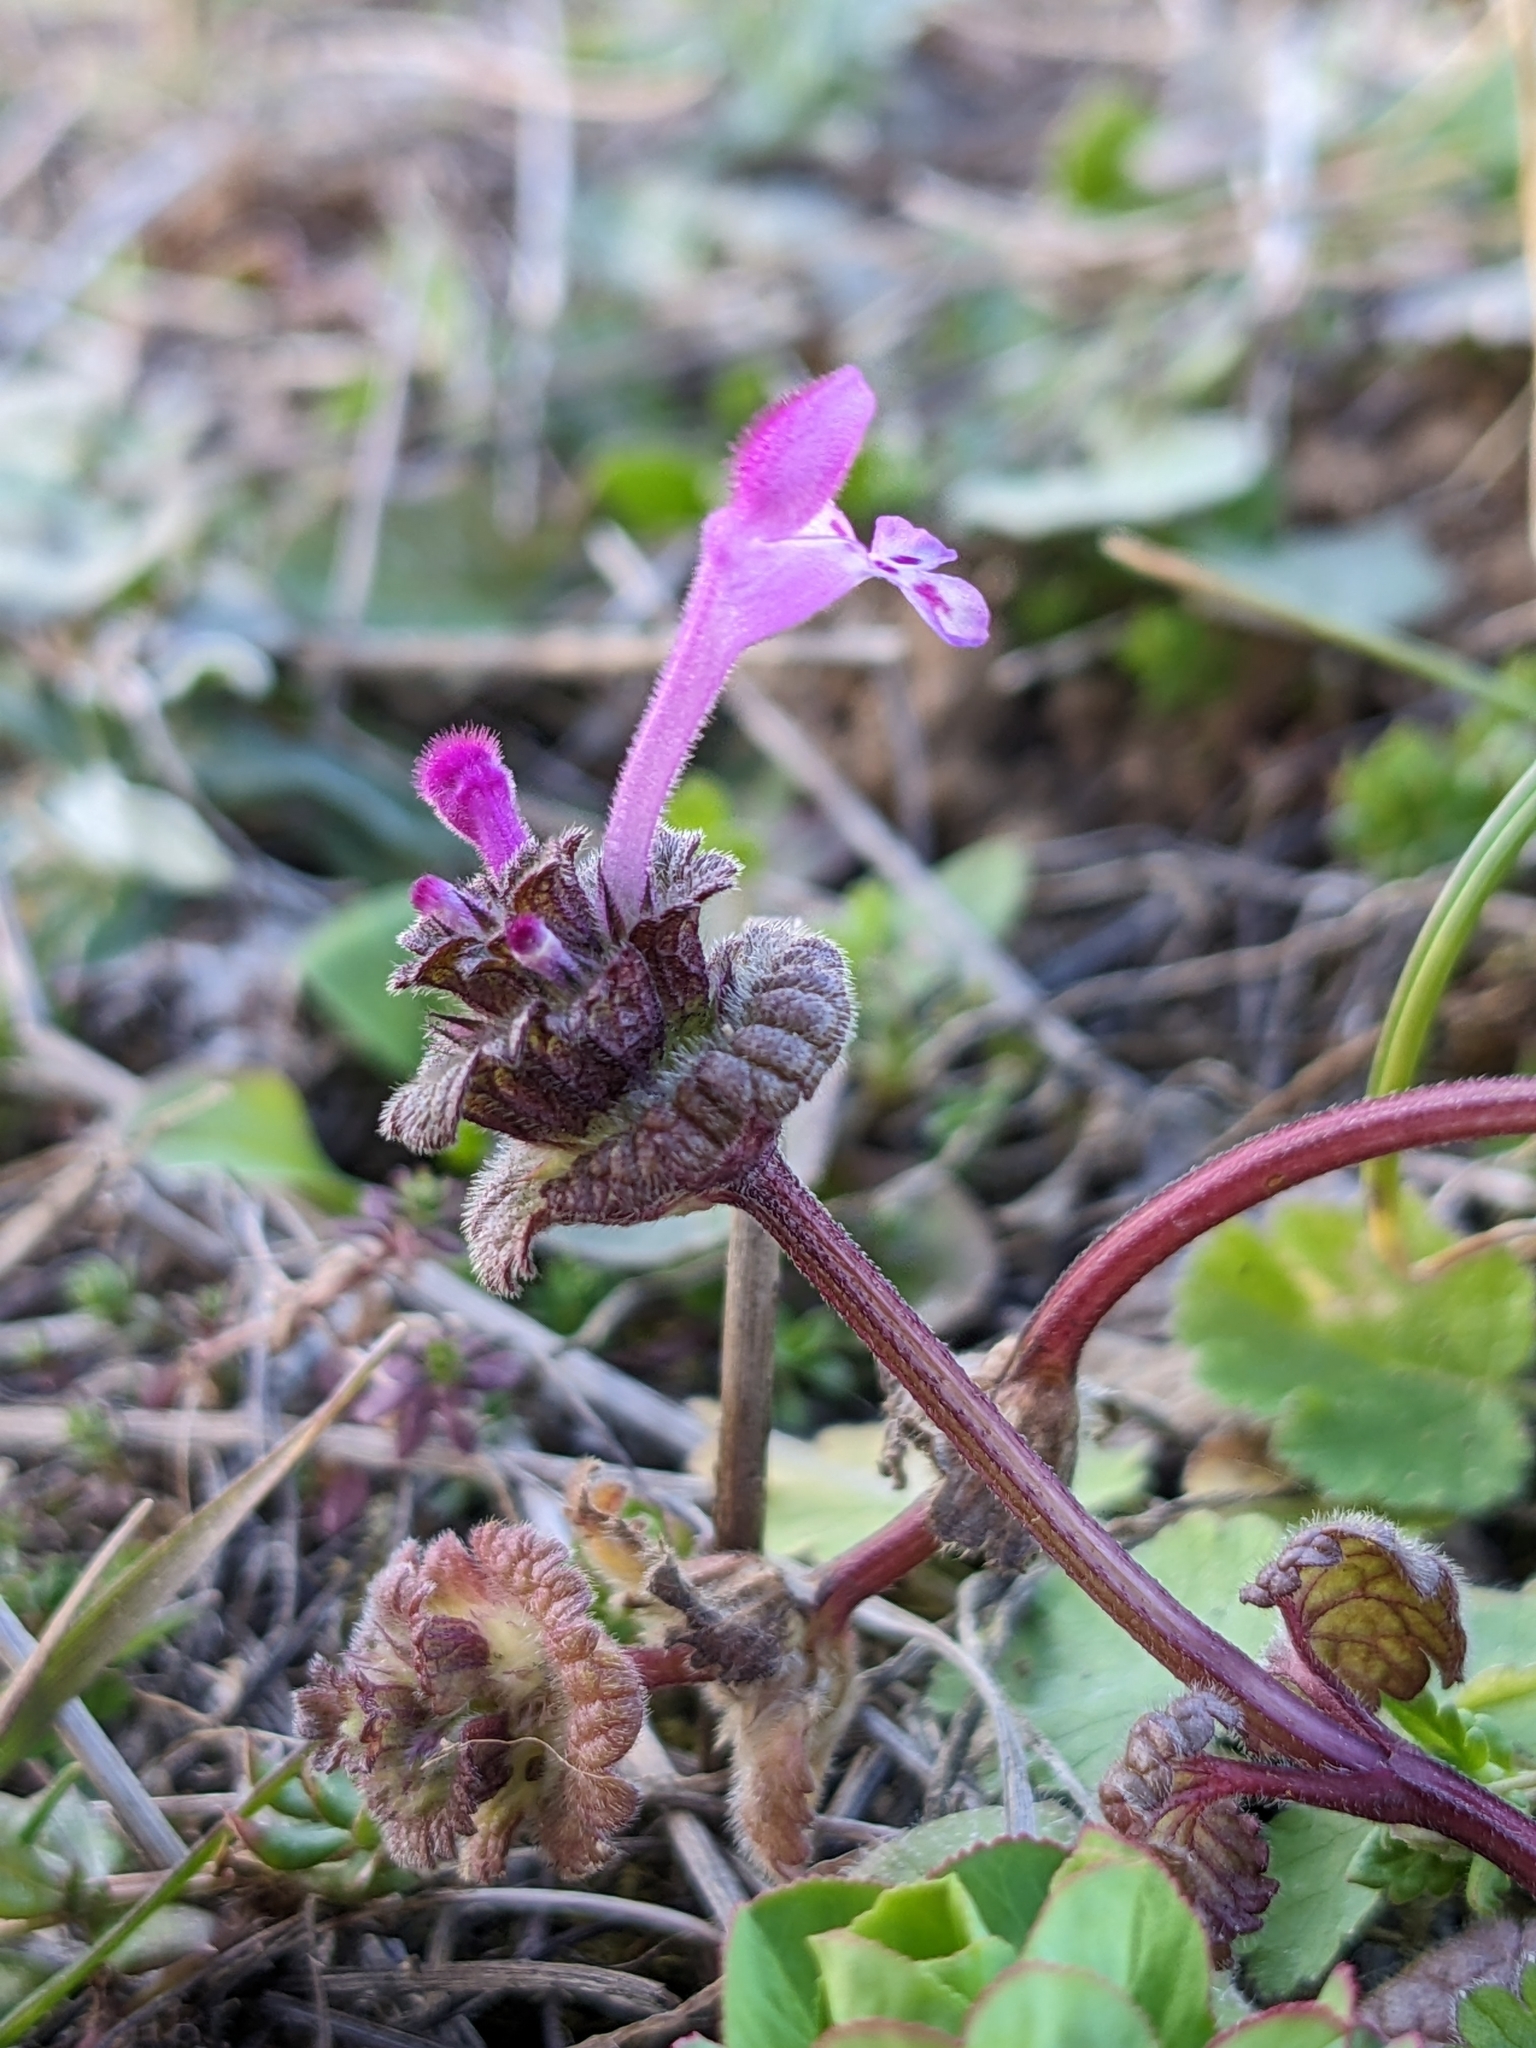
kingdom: Plantae
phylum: Tracheophyta
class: Magnoliopsida
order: Lamiales
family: Lamiaceae
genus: Lamium
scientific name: Lamium amplexicaule
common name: Henbit dead-nettle
